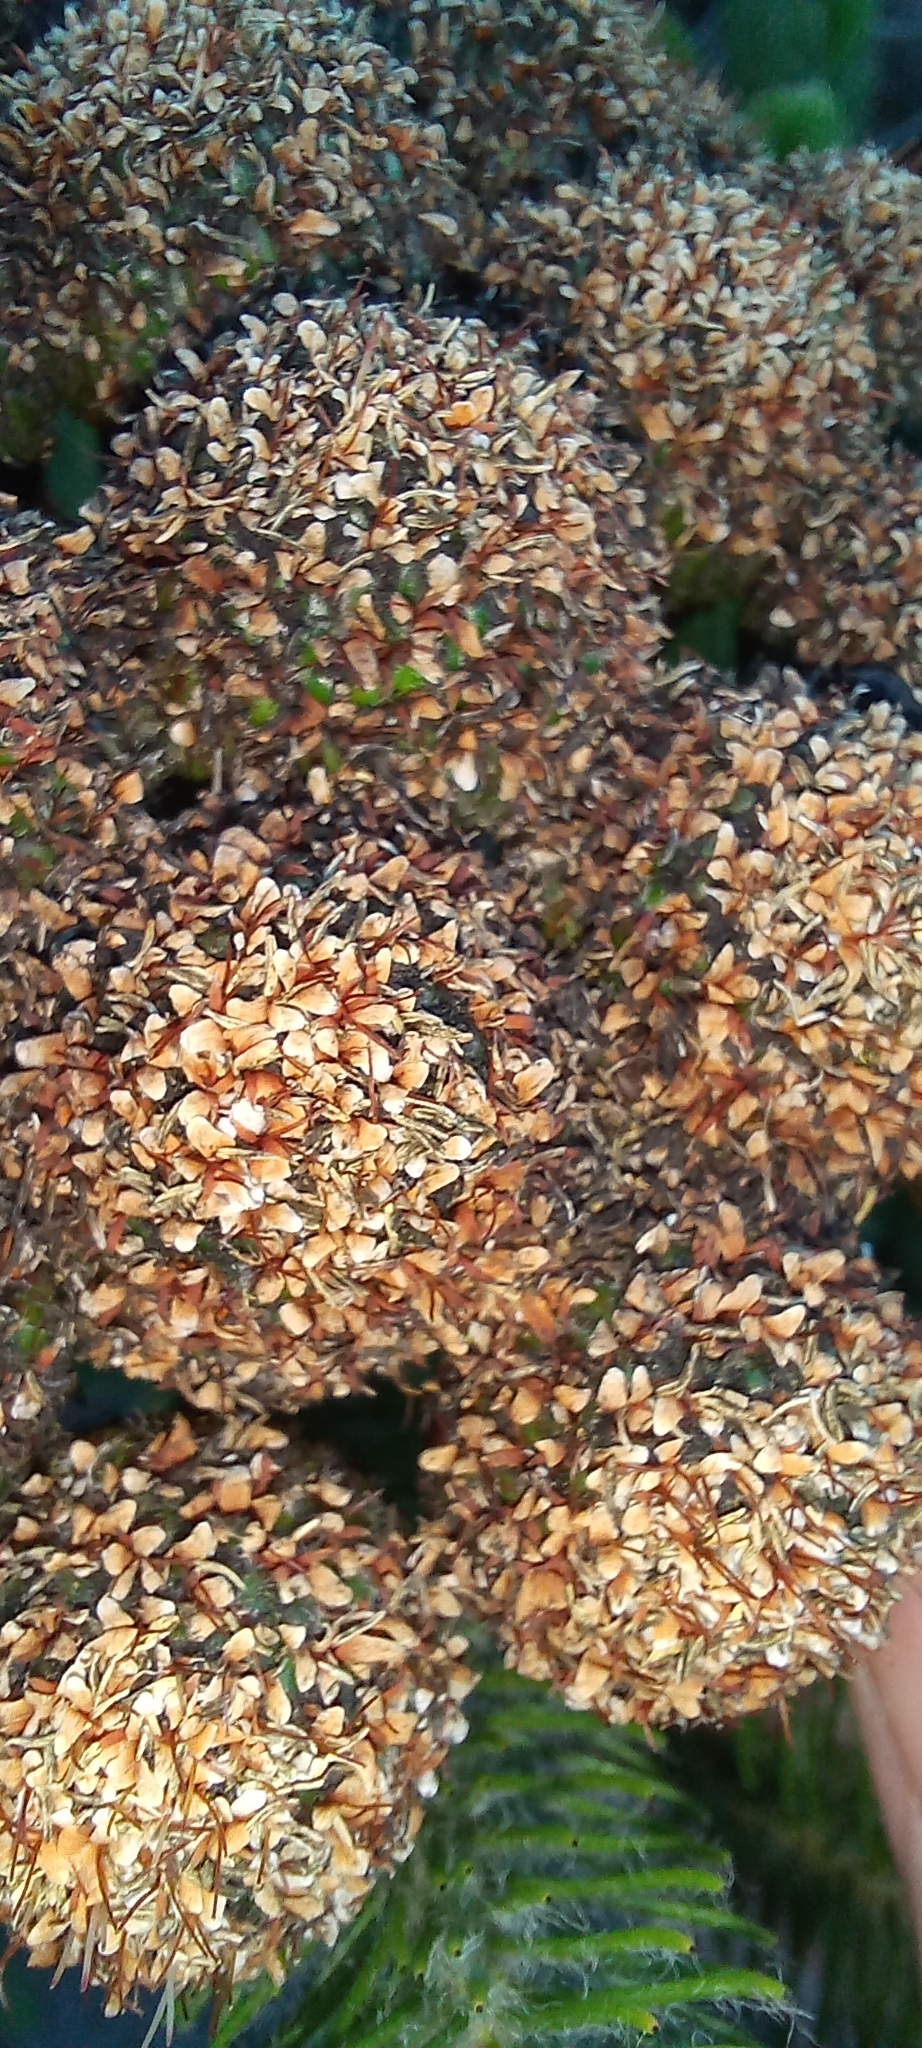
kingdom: Plantae
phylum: Tracheophyta
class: Magnoliopsida
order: Bruniales
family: Bruniaceae
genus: Berzelia
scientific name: Berzelia albiflora
